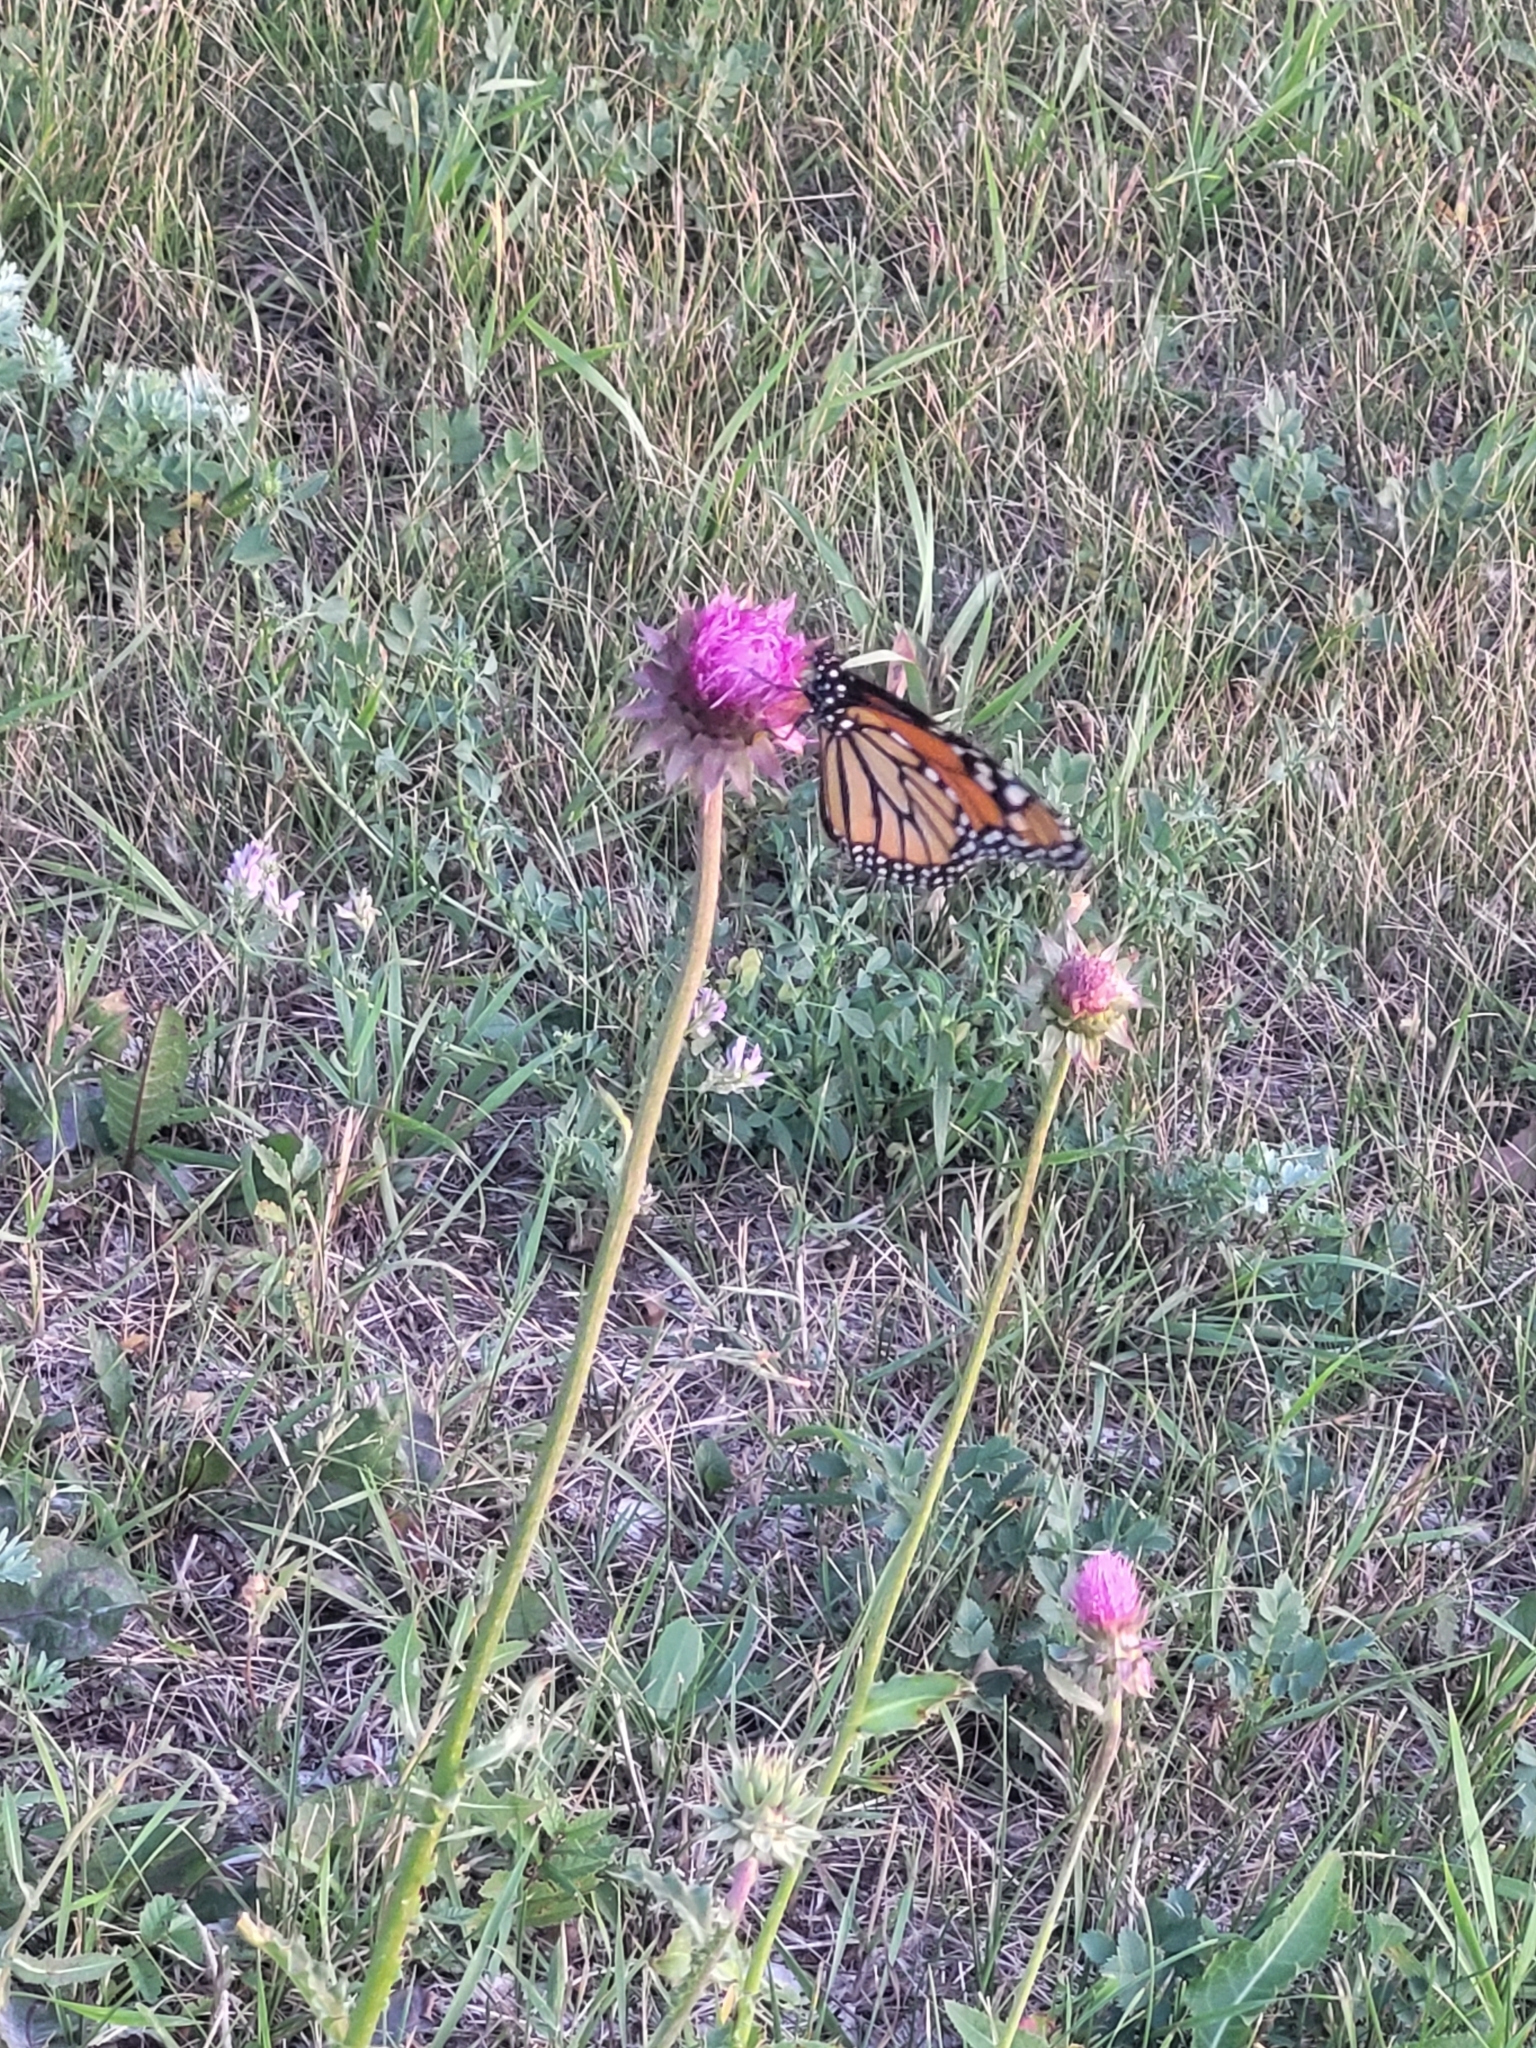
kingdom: Animalia
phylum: Arthropoda
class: Insecta
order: Lepidoptera
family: Nymphalidae
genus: Danaus
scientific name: Danaus plexippus
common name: Monarch
